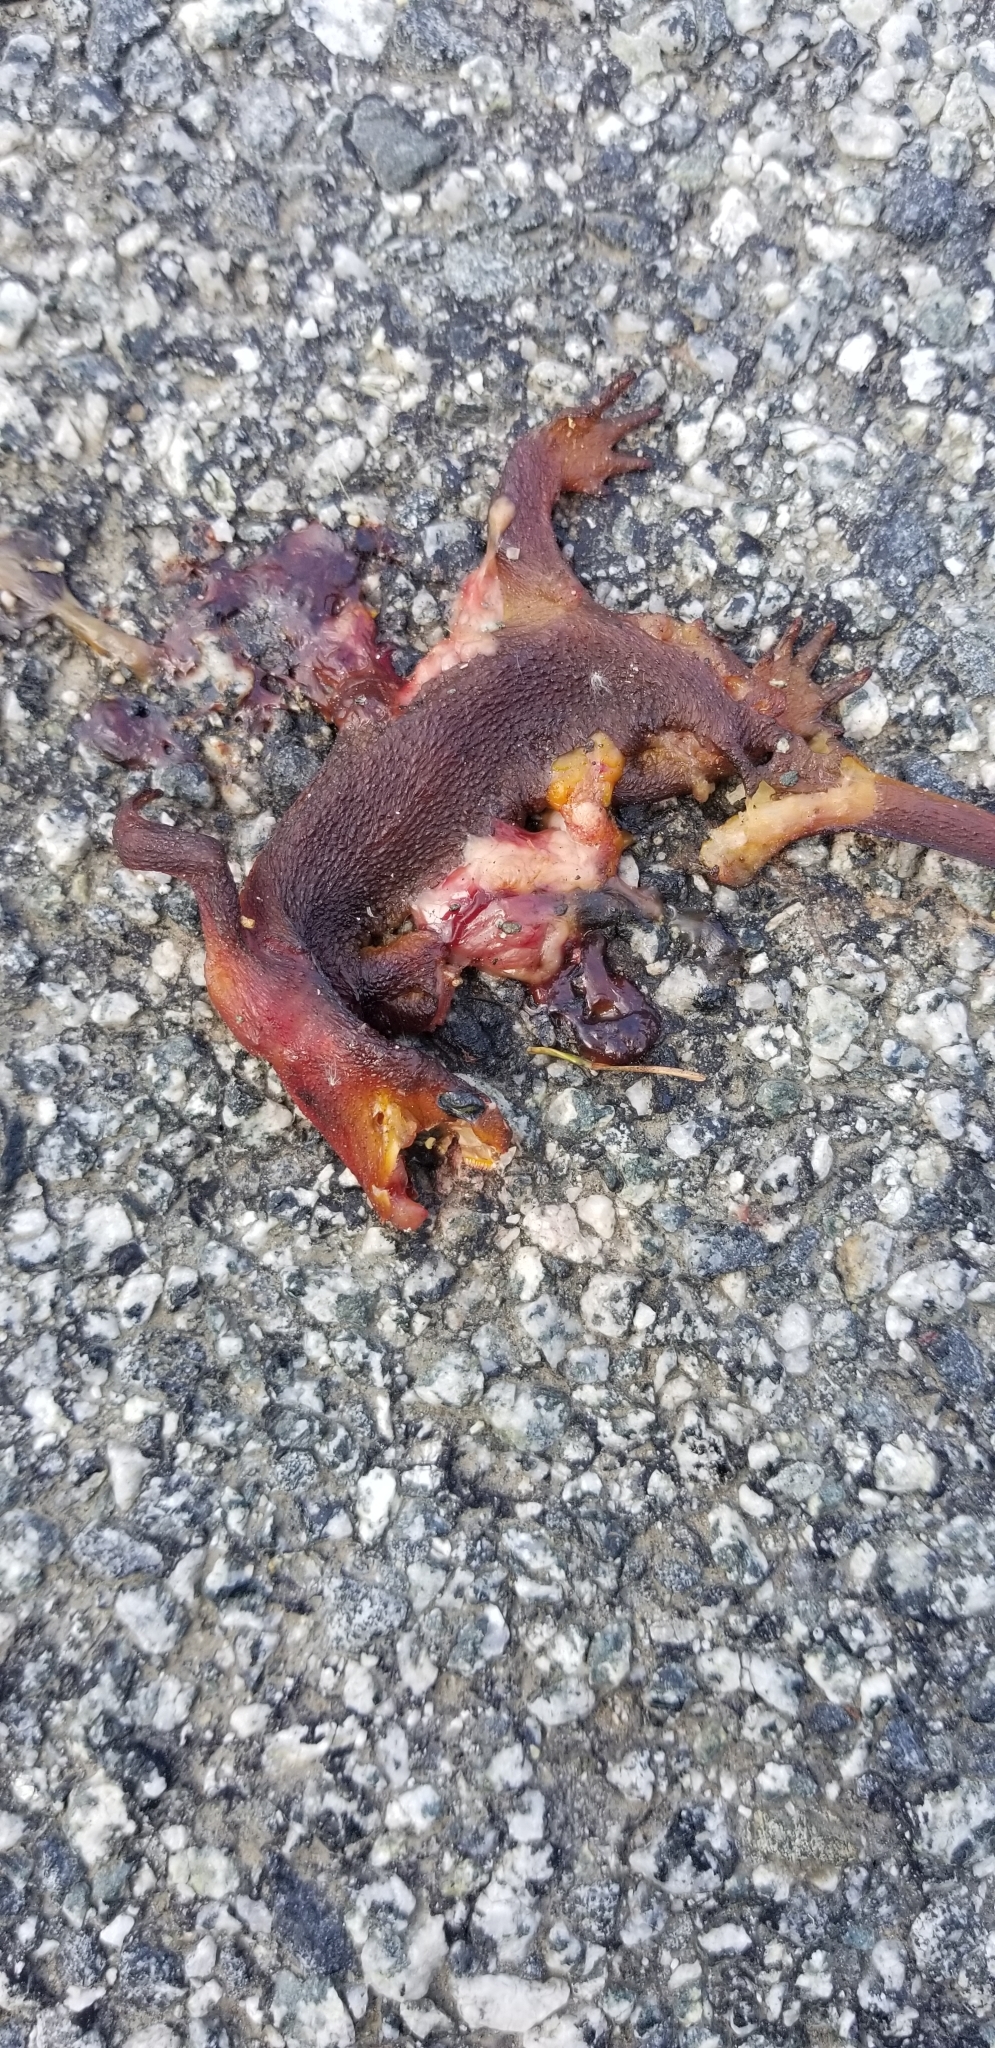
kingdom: Animalia
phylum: Chordata
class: Amphibia
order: Caudata
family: Salamandridae
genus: Taricha
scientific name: Taricha
